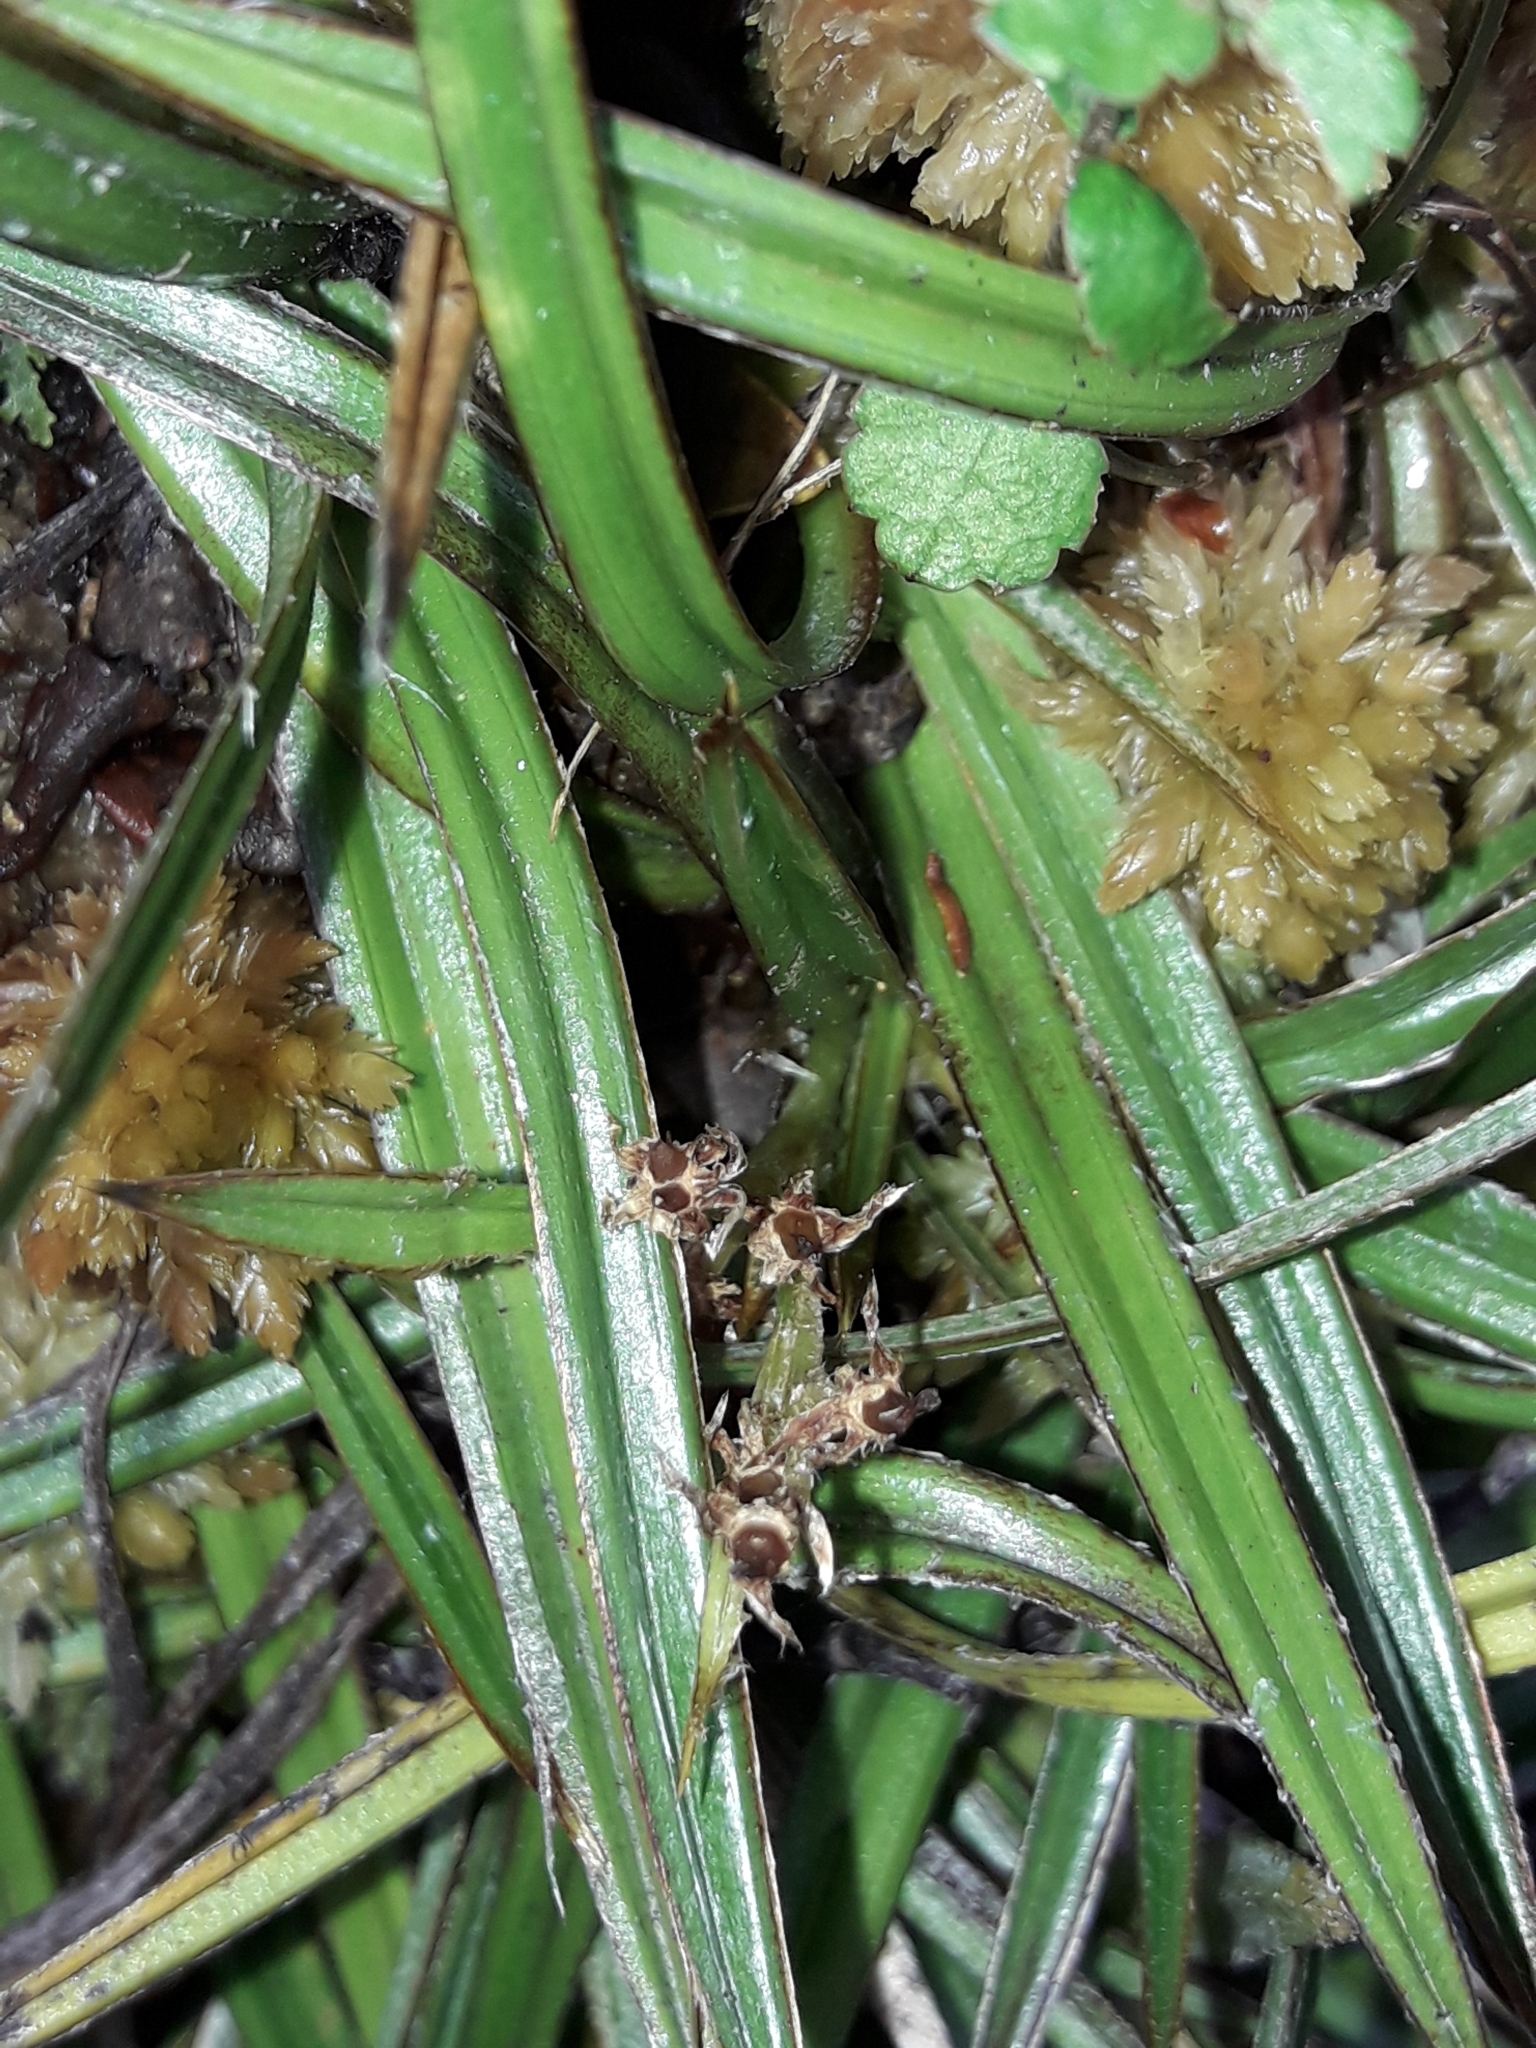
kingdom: Plantae
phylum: Tracheophyta
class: Liliopsida
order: Asparagales
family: Asteliaceae
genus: Astelia
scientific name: Astelia linearis
